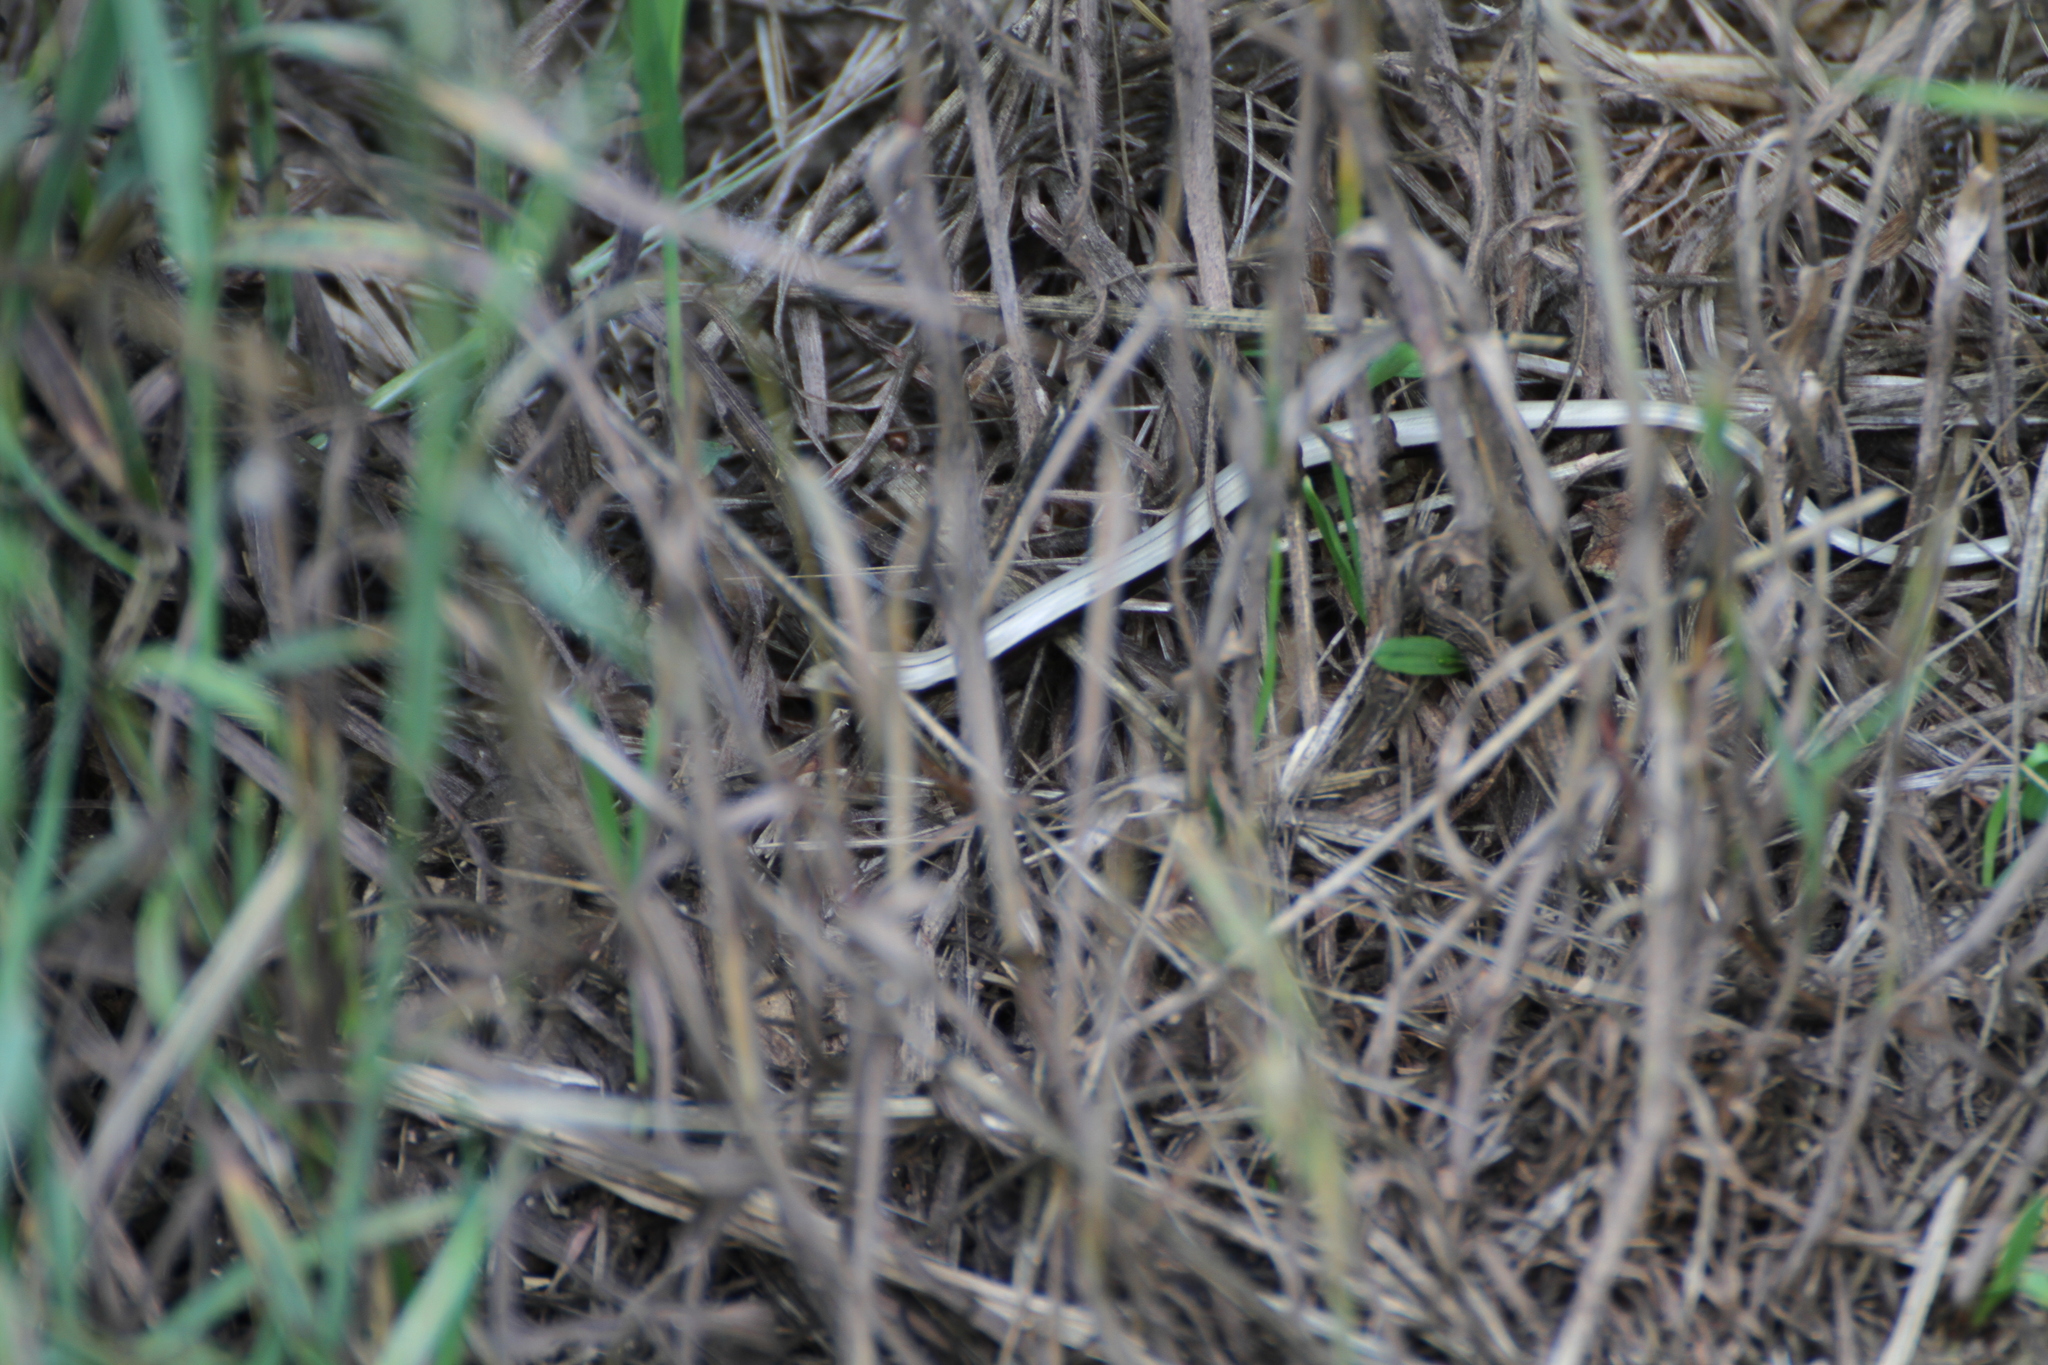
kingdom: Animalia
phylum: Chordata
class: Squamata
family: Anguidae
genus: Anguis
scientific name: Anguis veronensis
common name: Italian slow worm
